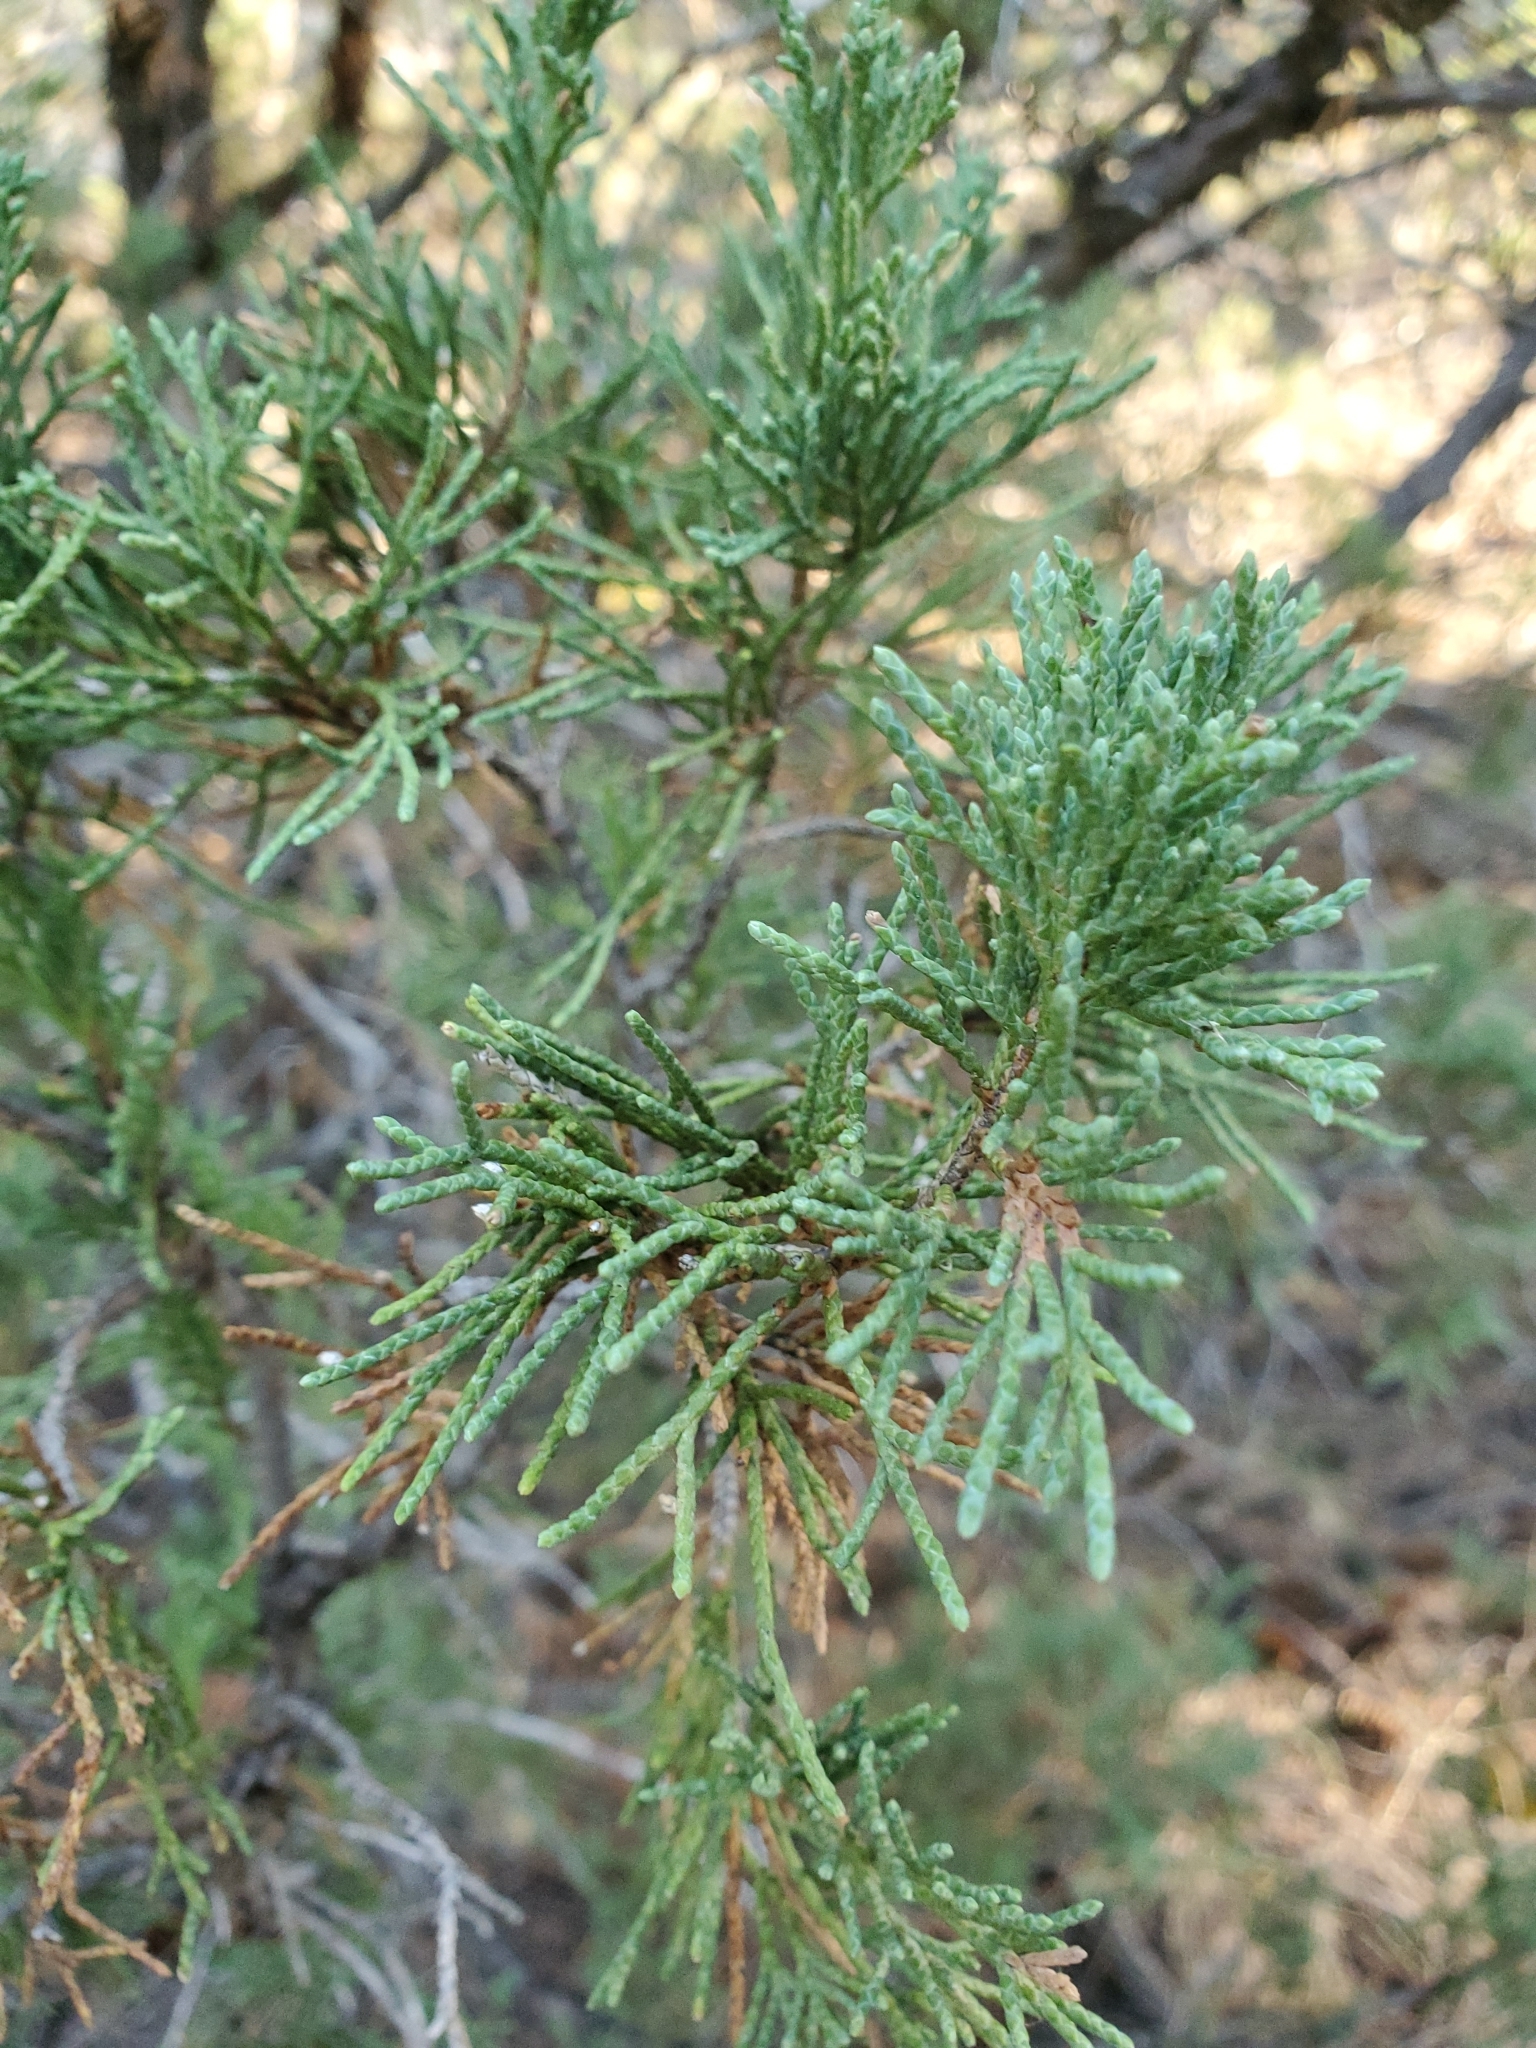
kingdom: Plantae
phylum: Tracheophyta
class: Pinopsida
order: Pinales
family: Cupressaceae
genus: Juniperus
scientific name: Juniperus scopulorum
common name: Rocky mountain juniper
